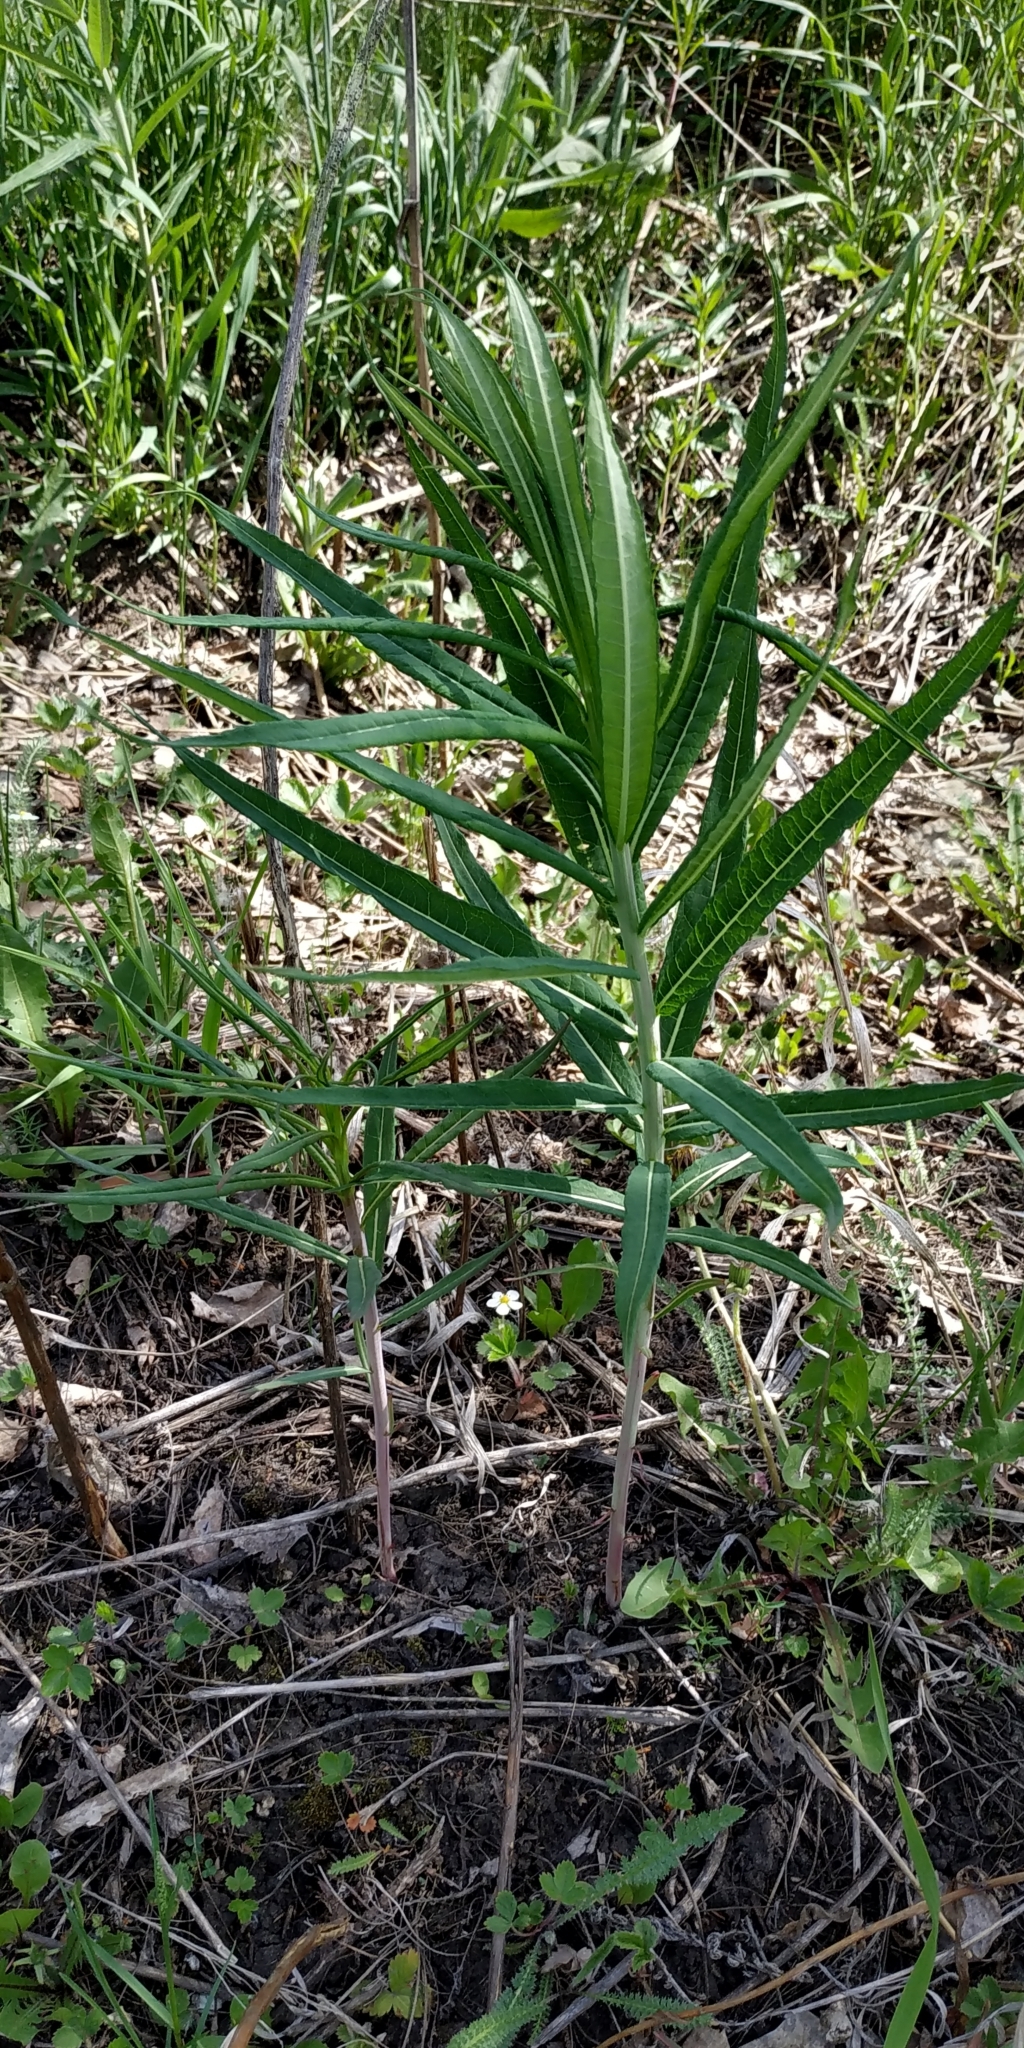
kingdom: Plantae
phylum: Tracheophyta
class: Magnoliopsida
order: Myrtales
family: Onagraceae
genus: Chamaenerion
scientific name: Chamaenerion angustifolium
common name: Fireweed
